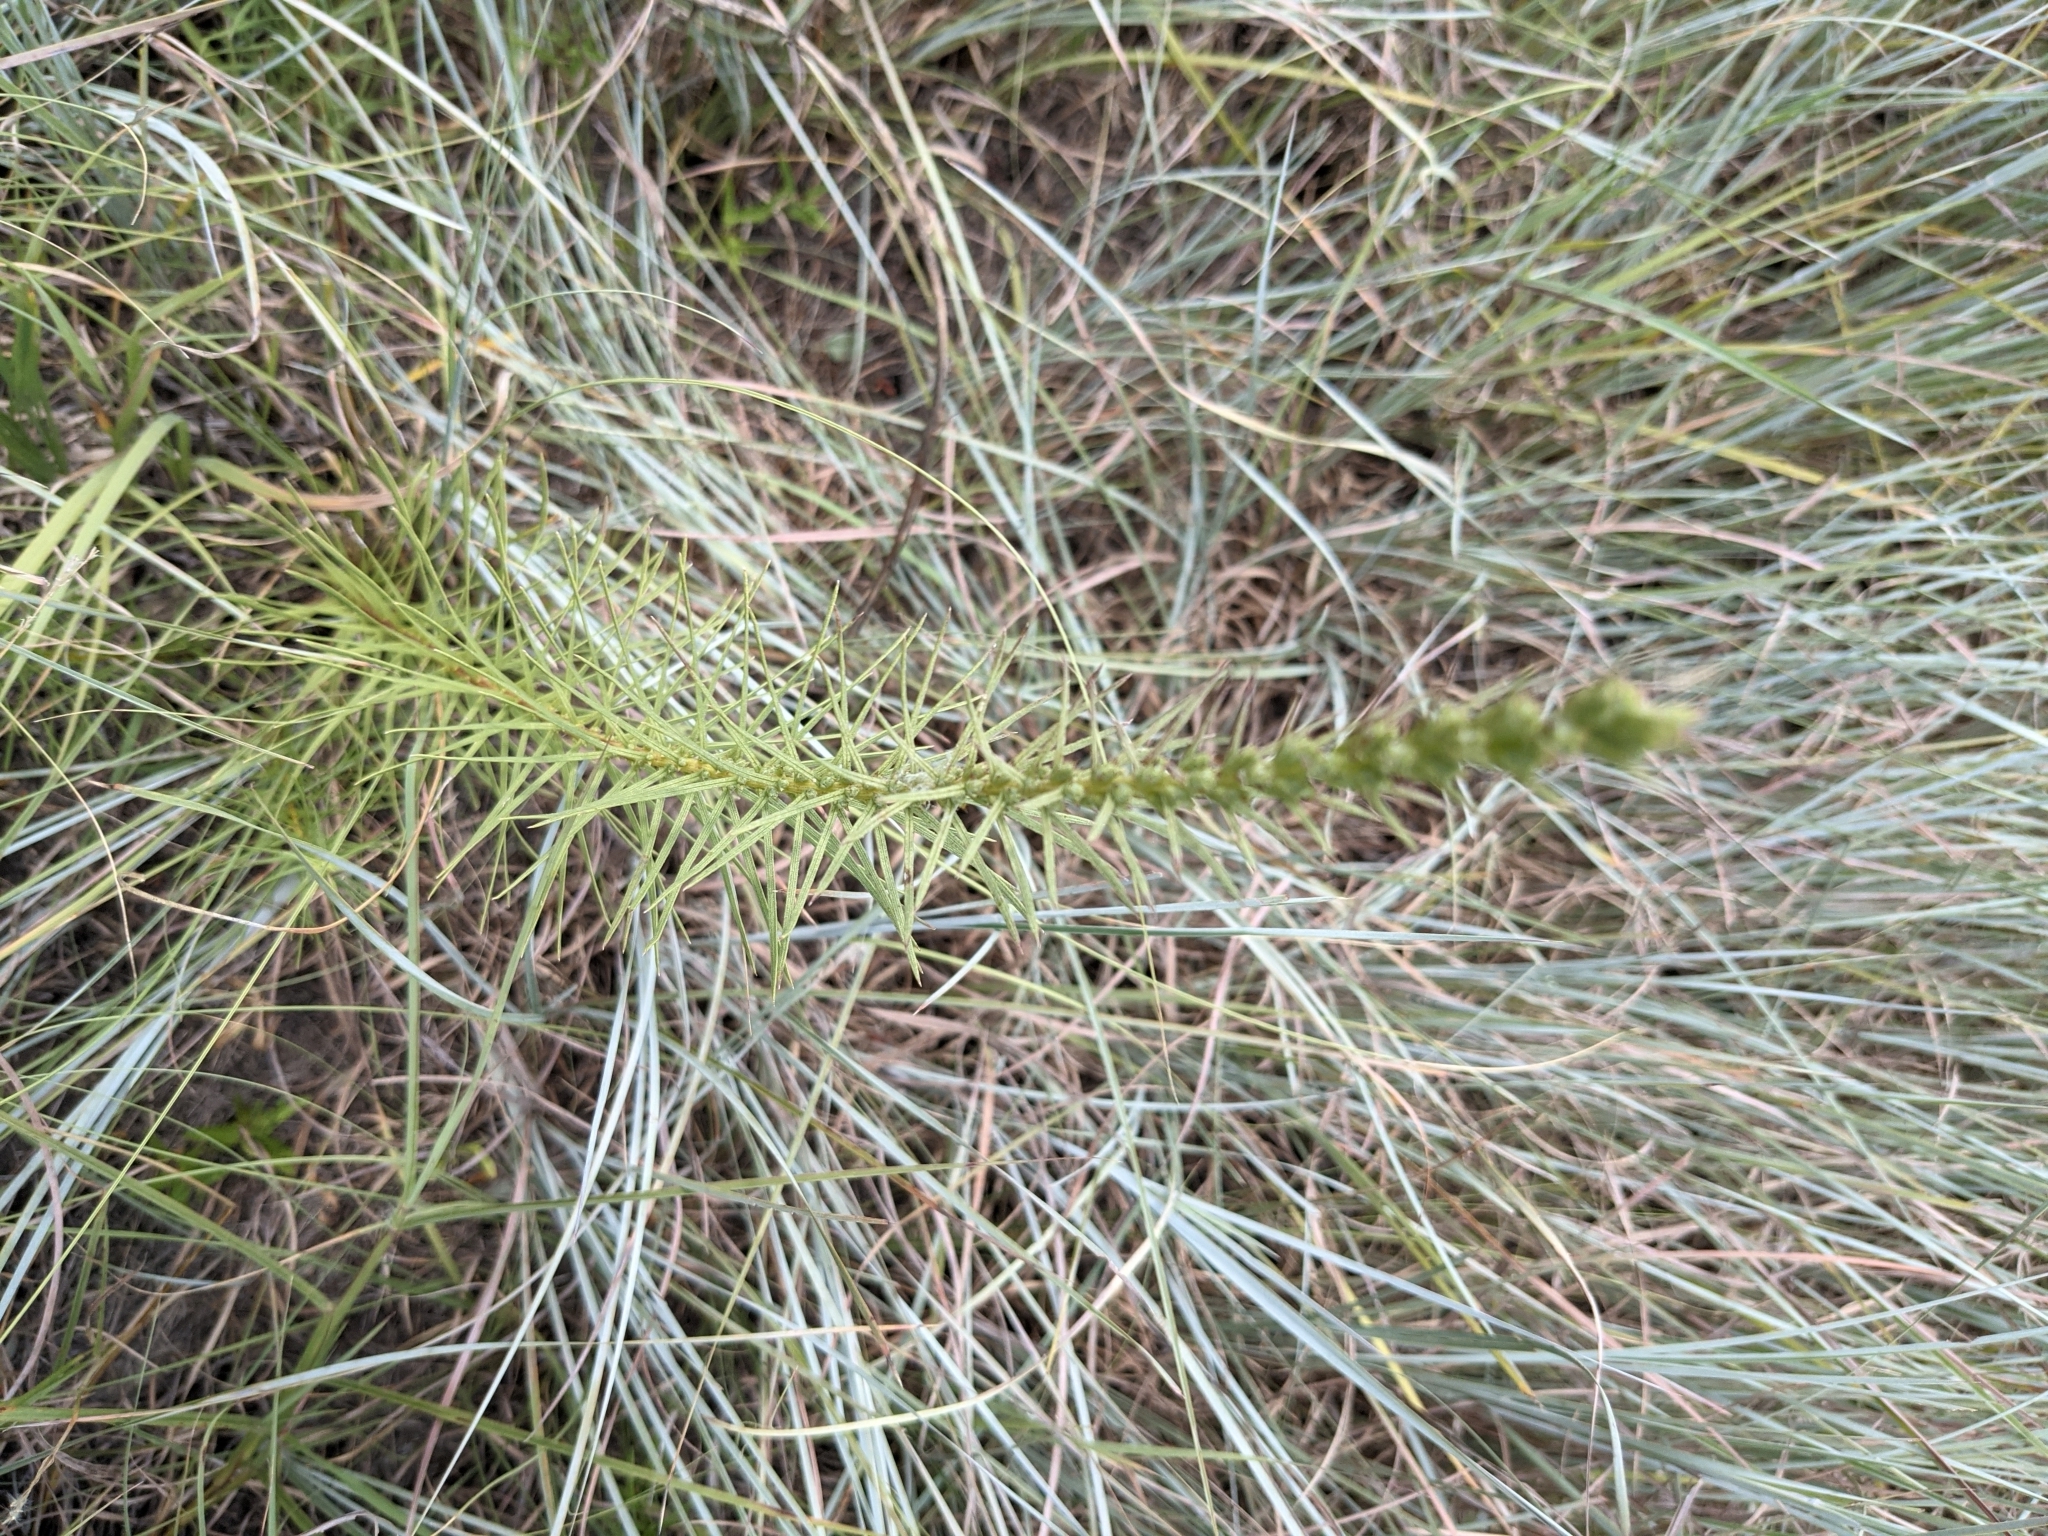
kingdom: Plantae
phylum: Tracheophyta
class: Magnoliopsida
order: Asterales
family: Asteraceae
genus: Liatris
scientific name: Liatris punctata
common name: Dotted gayfeather
